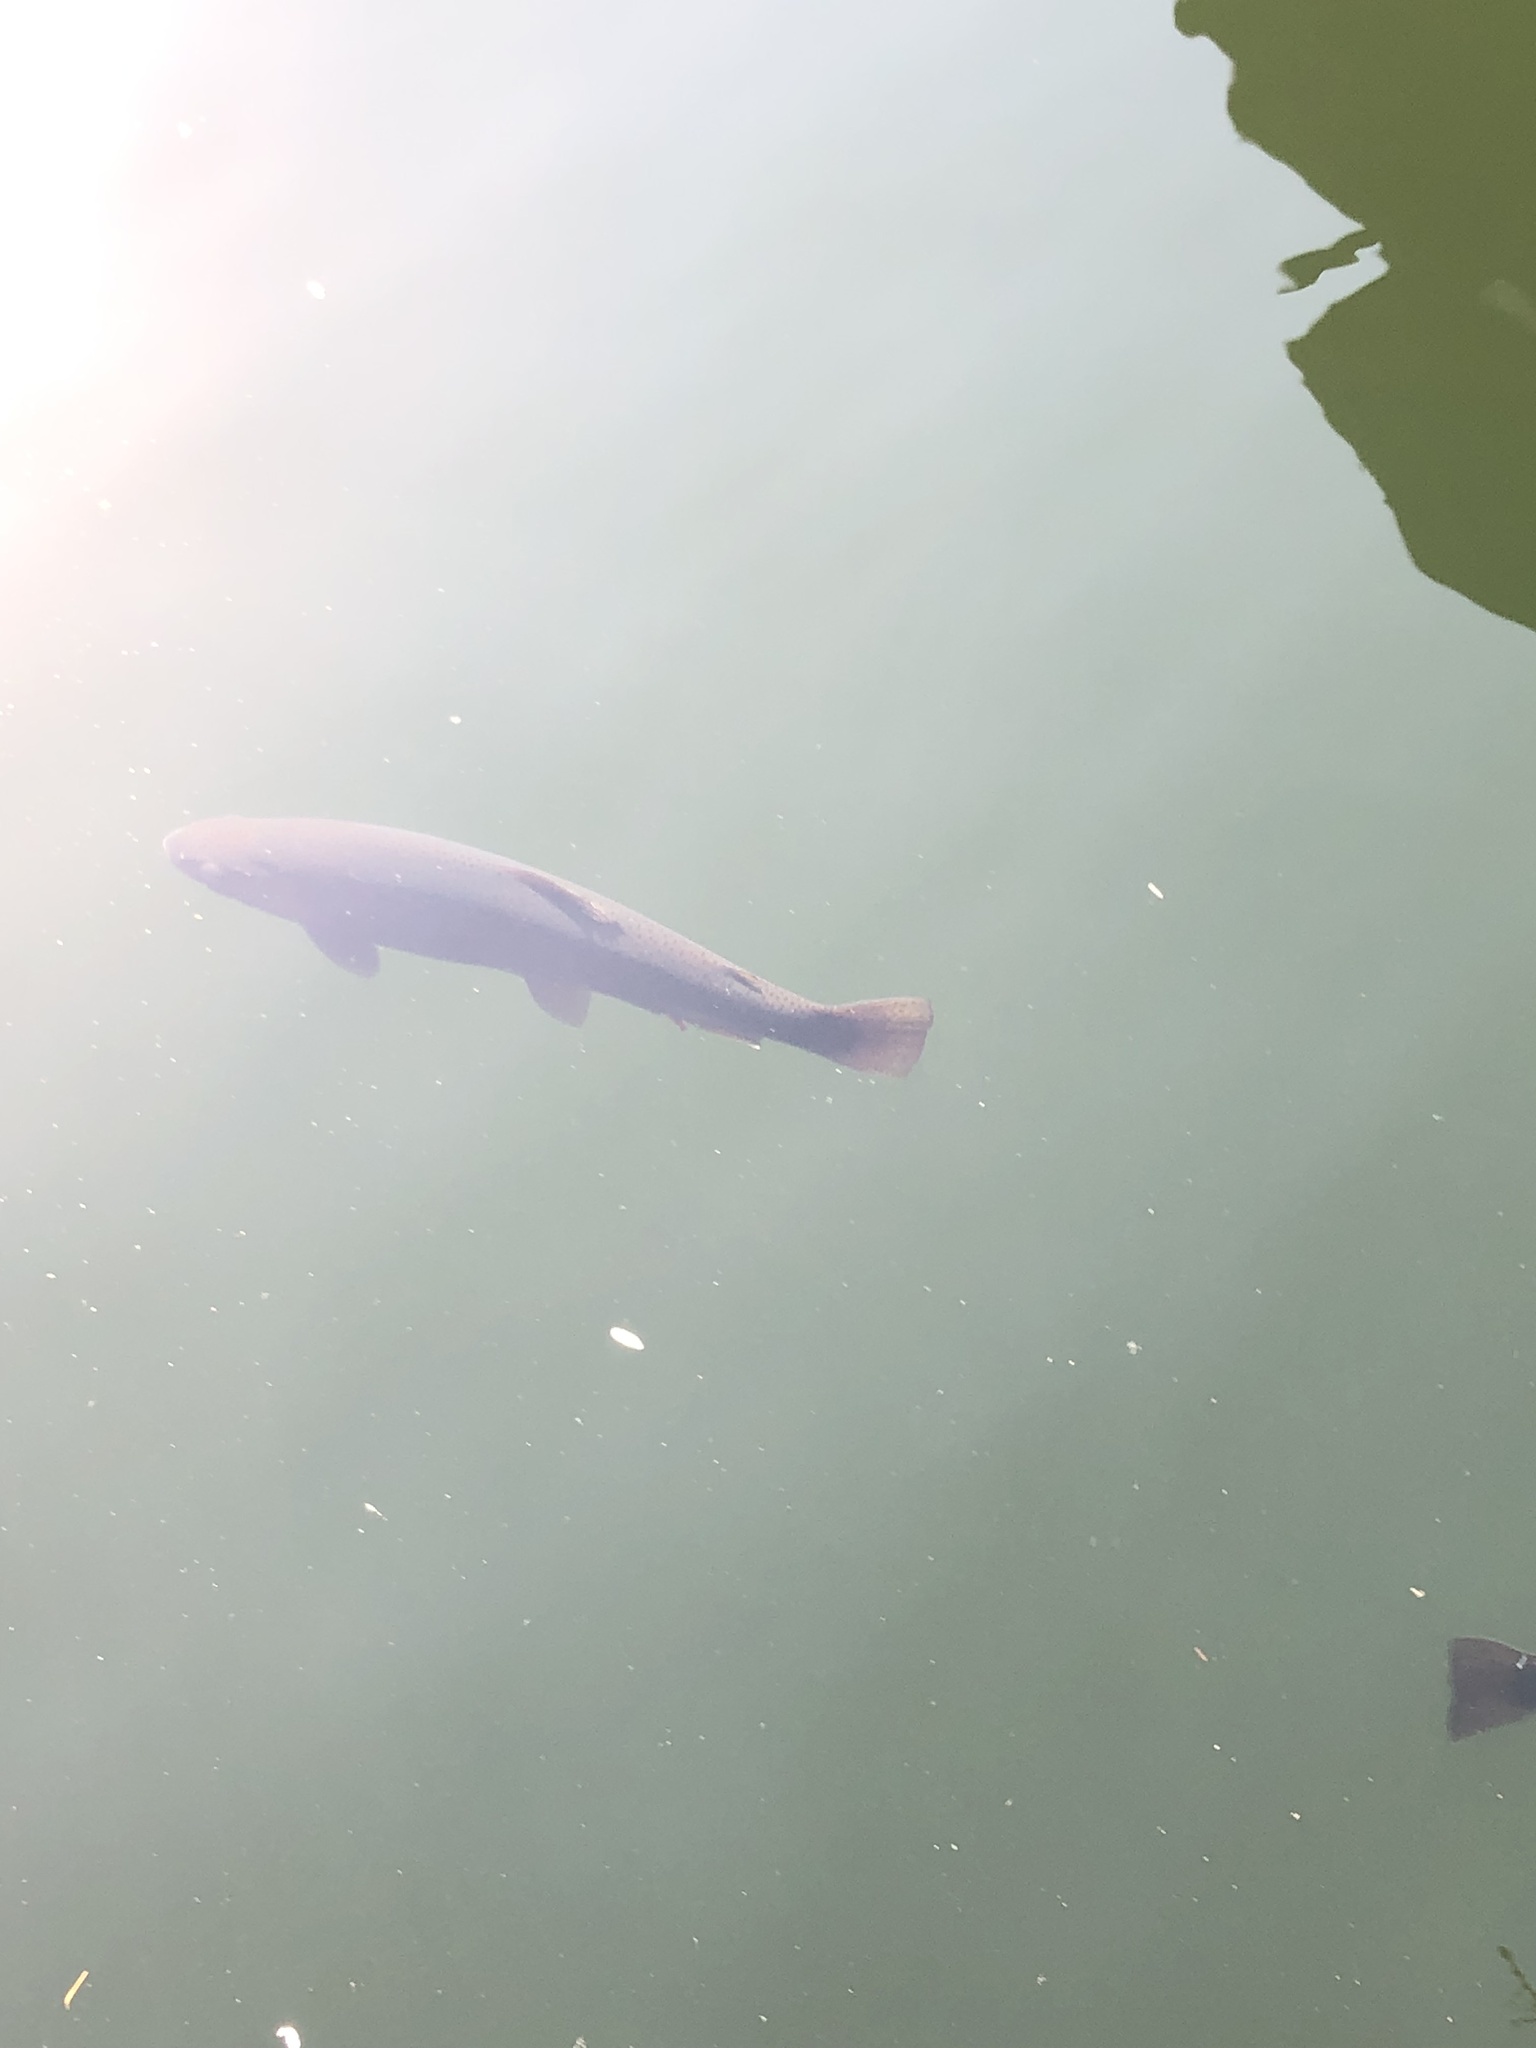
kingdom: Animalia
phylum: Chordata
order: Salmoniformes
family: Salmonidae
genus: Oncorhynchus
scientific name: Oncorhynchus mykiss
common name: Rainbow trout
